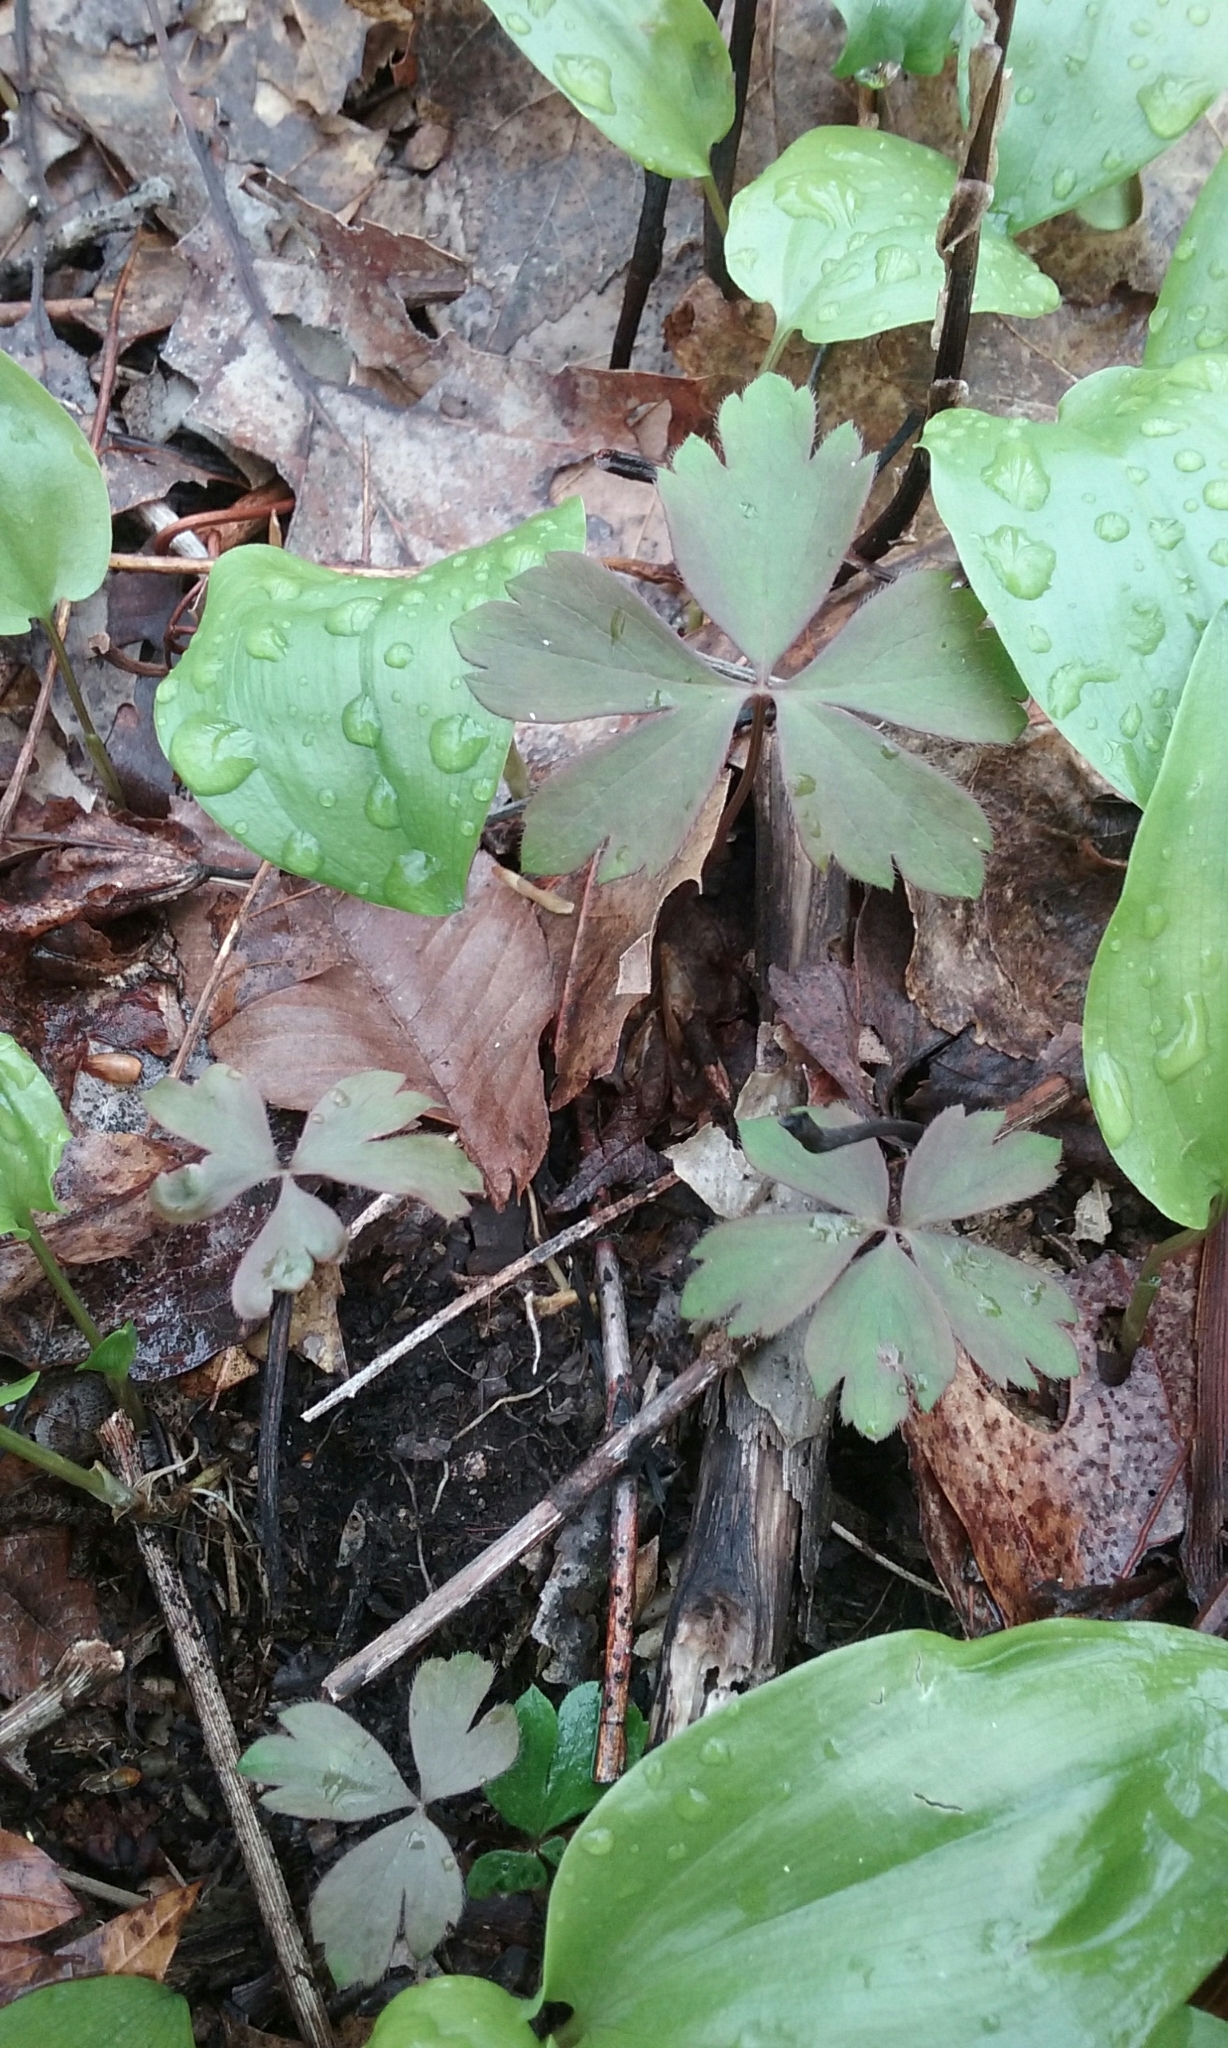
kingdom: Plantae
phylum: Tracheophyta
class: Magnoliopsida
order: Ranunculales
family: Ranunculaceae
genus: Anemone
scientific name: Anemone quinquefolia
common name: Wood anemone
